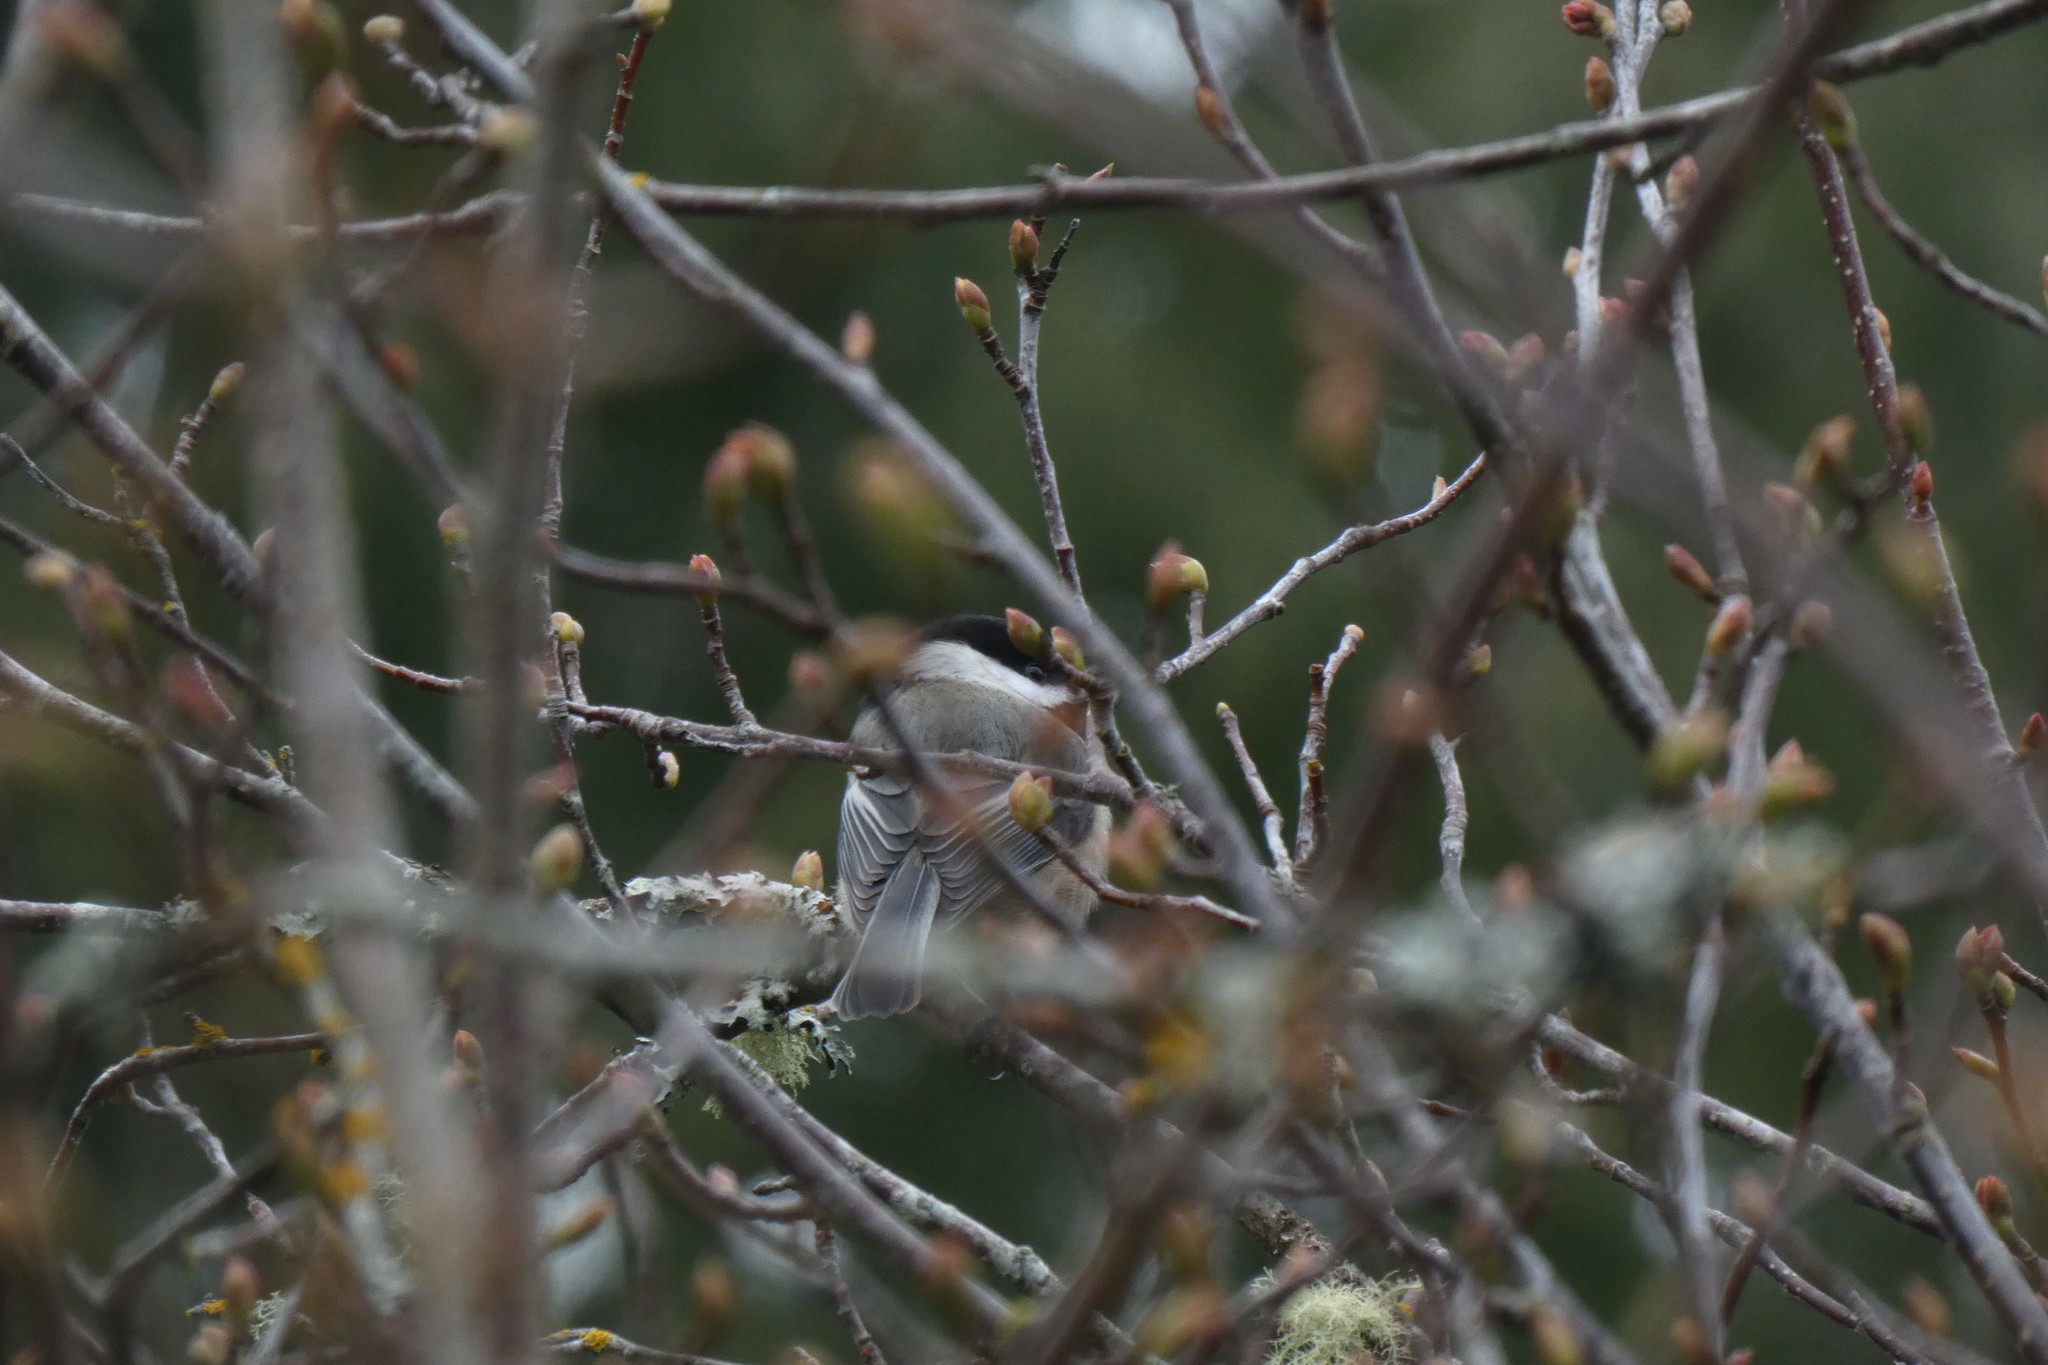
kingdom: Animalia
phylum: Chordata
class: Aves
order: Passeriformes
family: Paridae
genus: Poecile
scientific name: Poecile atricapillus
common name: Black-capped chickadee
